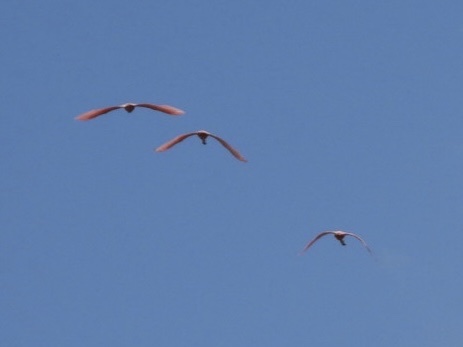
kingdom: Animalia
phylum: Chordata
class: Aves
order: Pelecaniformes
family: Threskiornithidae
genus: Platalea
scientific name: Platalea ajaja
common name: Roseate spoonbill
